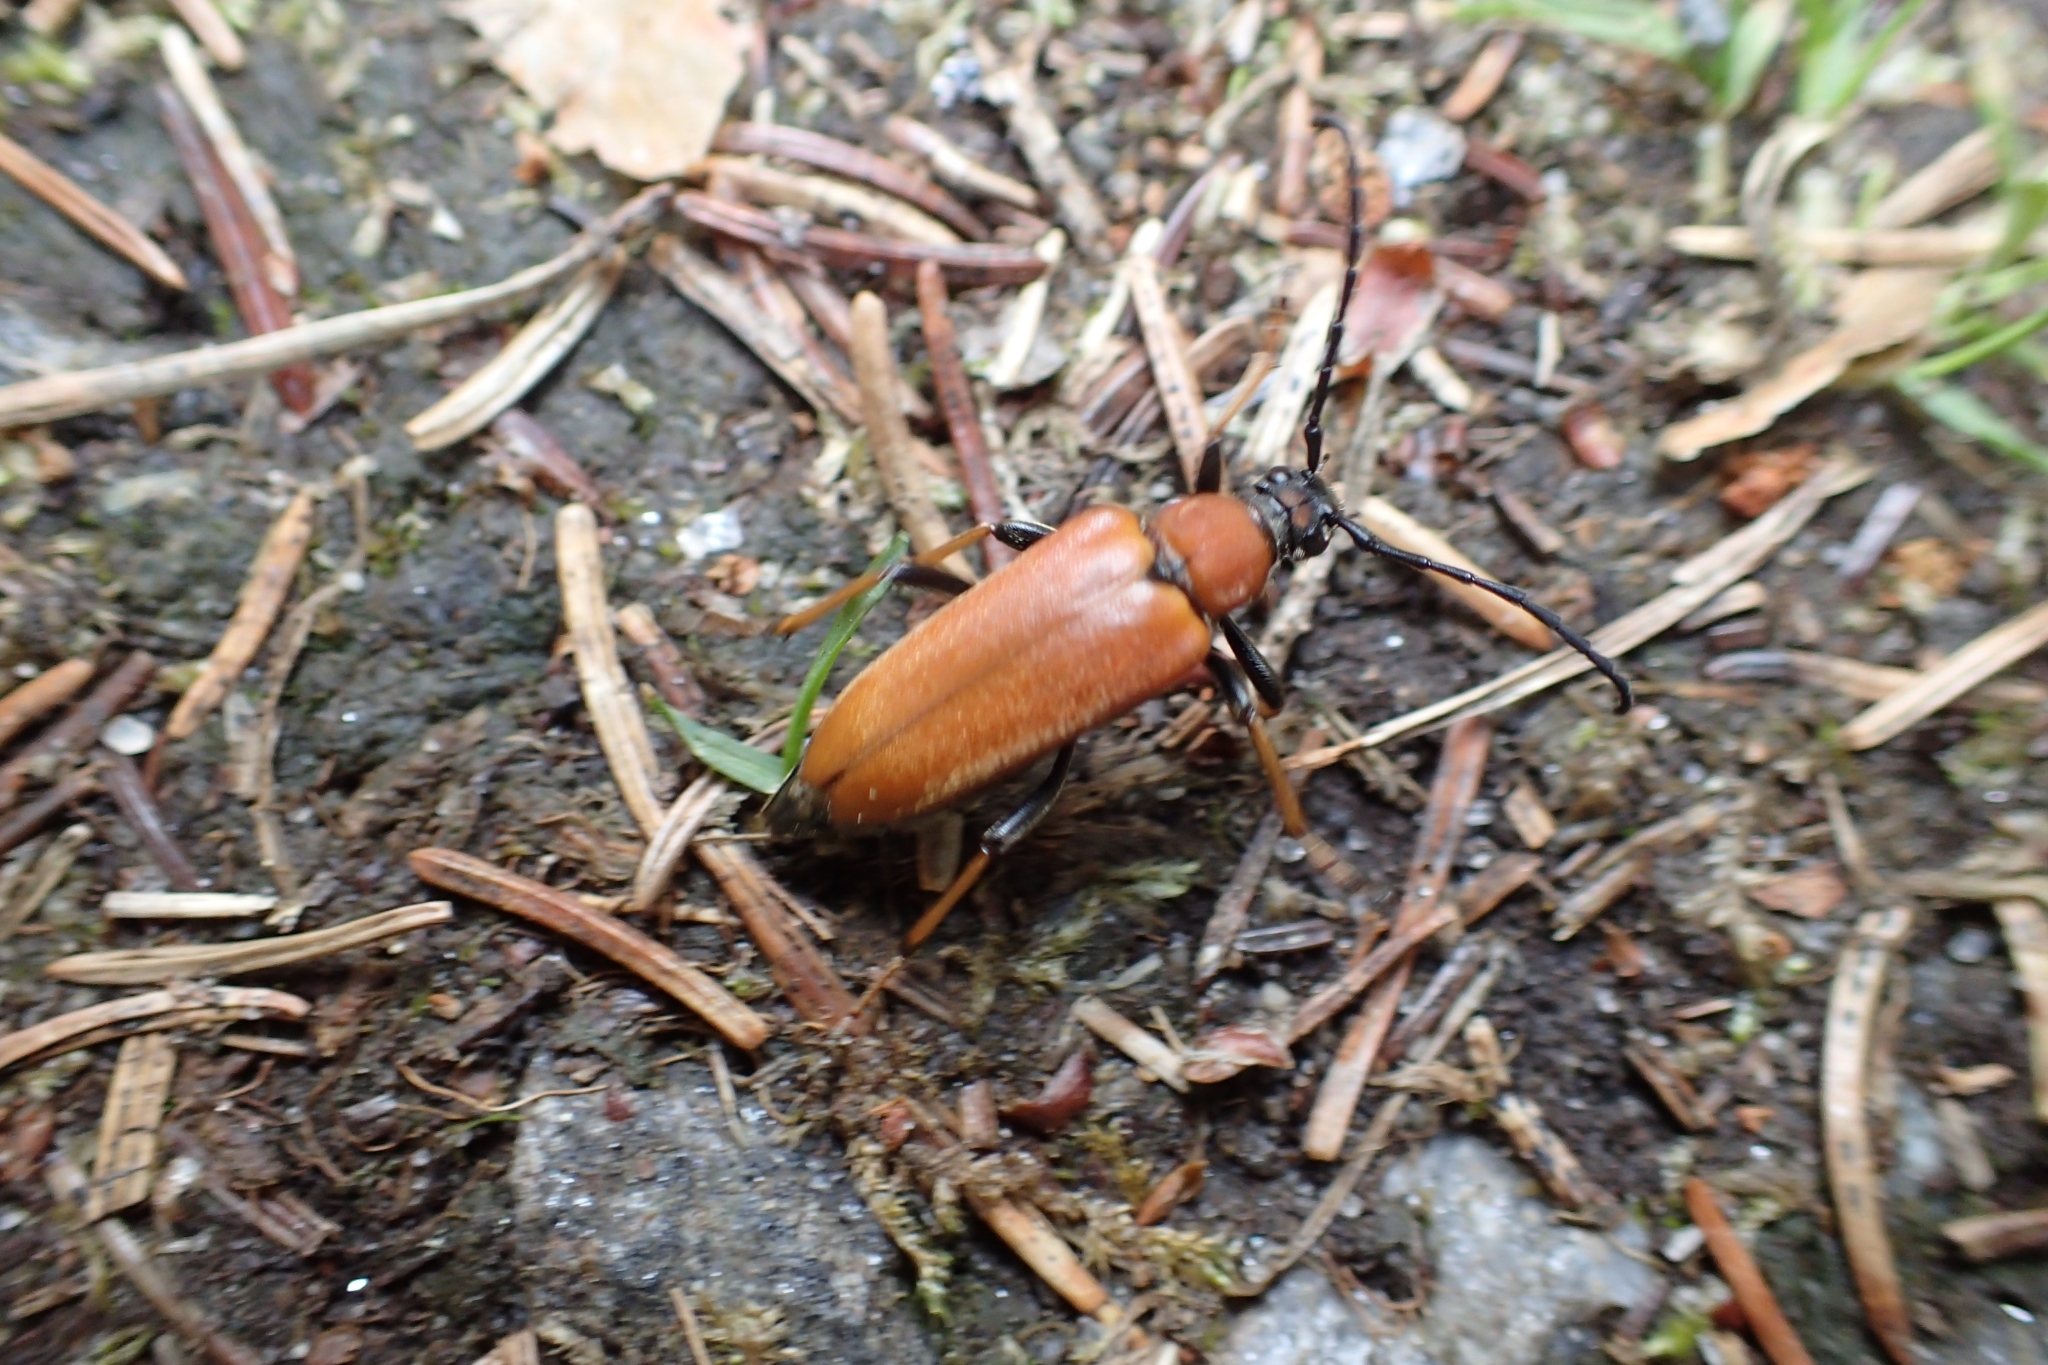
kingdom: Animalia
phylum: Arthropoda
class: Insecta
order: Coleoptera
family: Cerambycidae
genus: Stictoleptura
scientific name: Stictoleptura rubra
